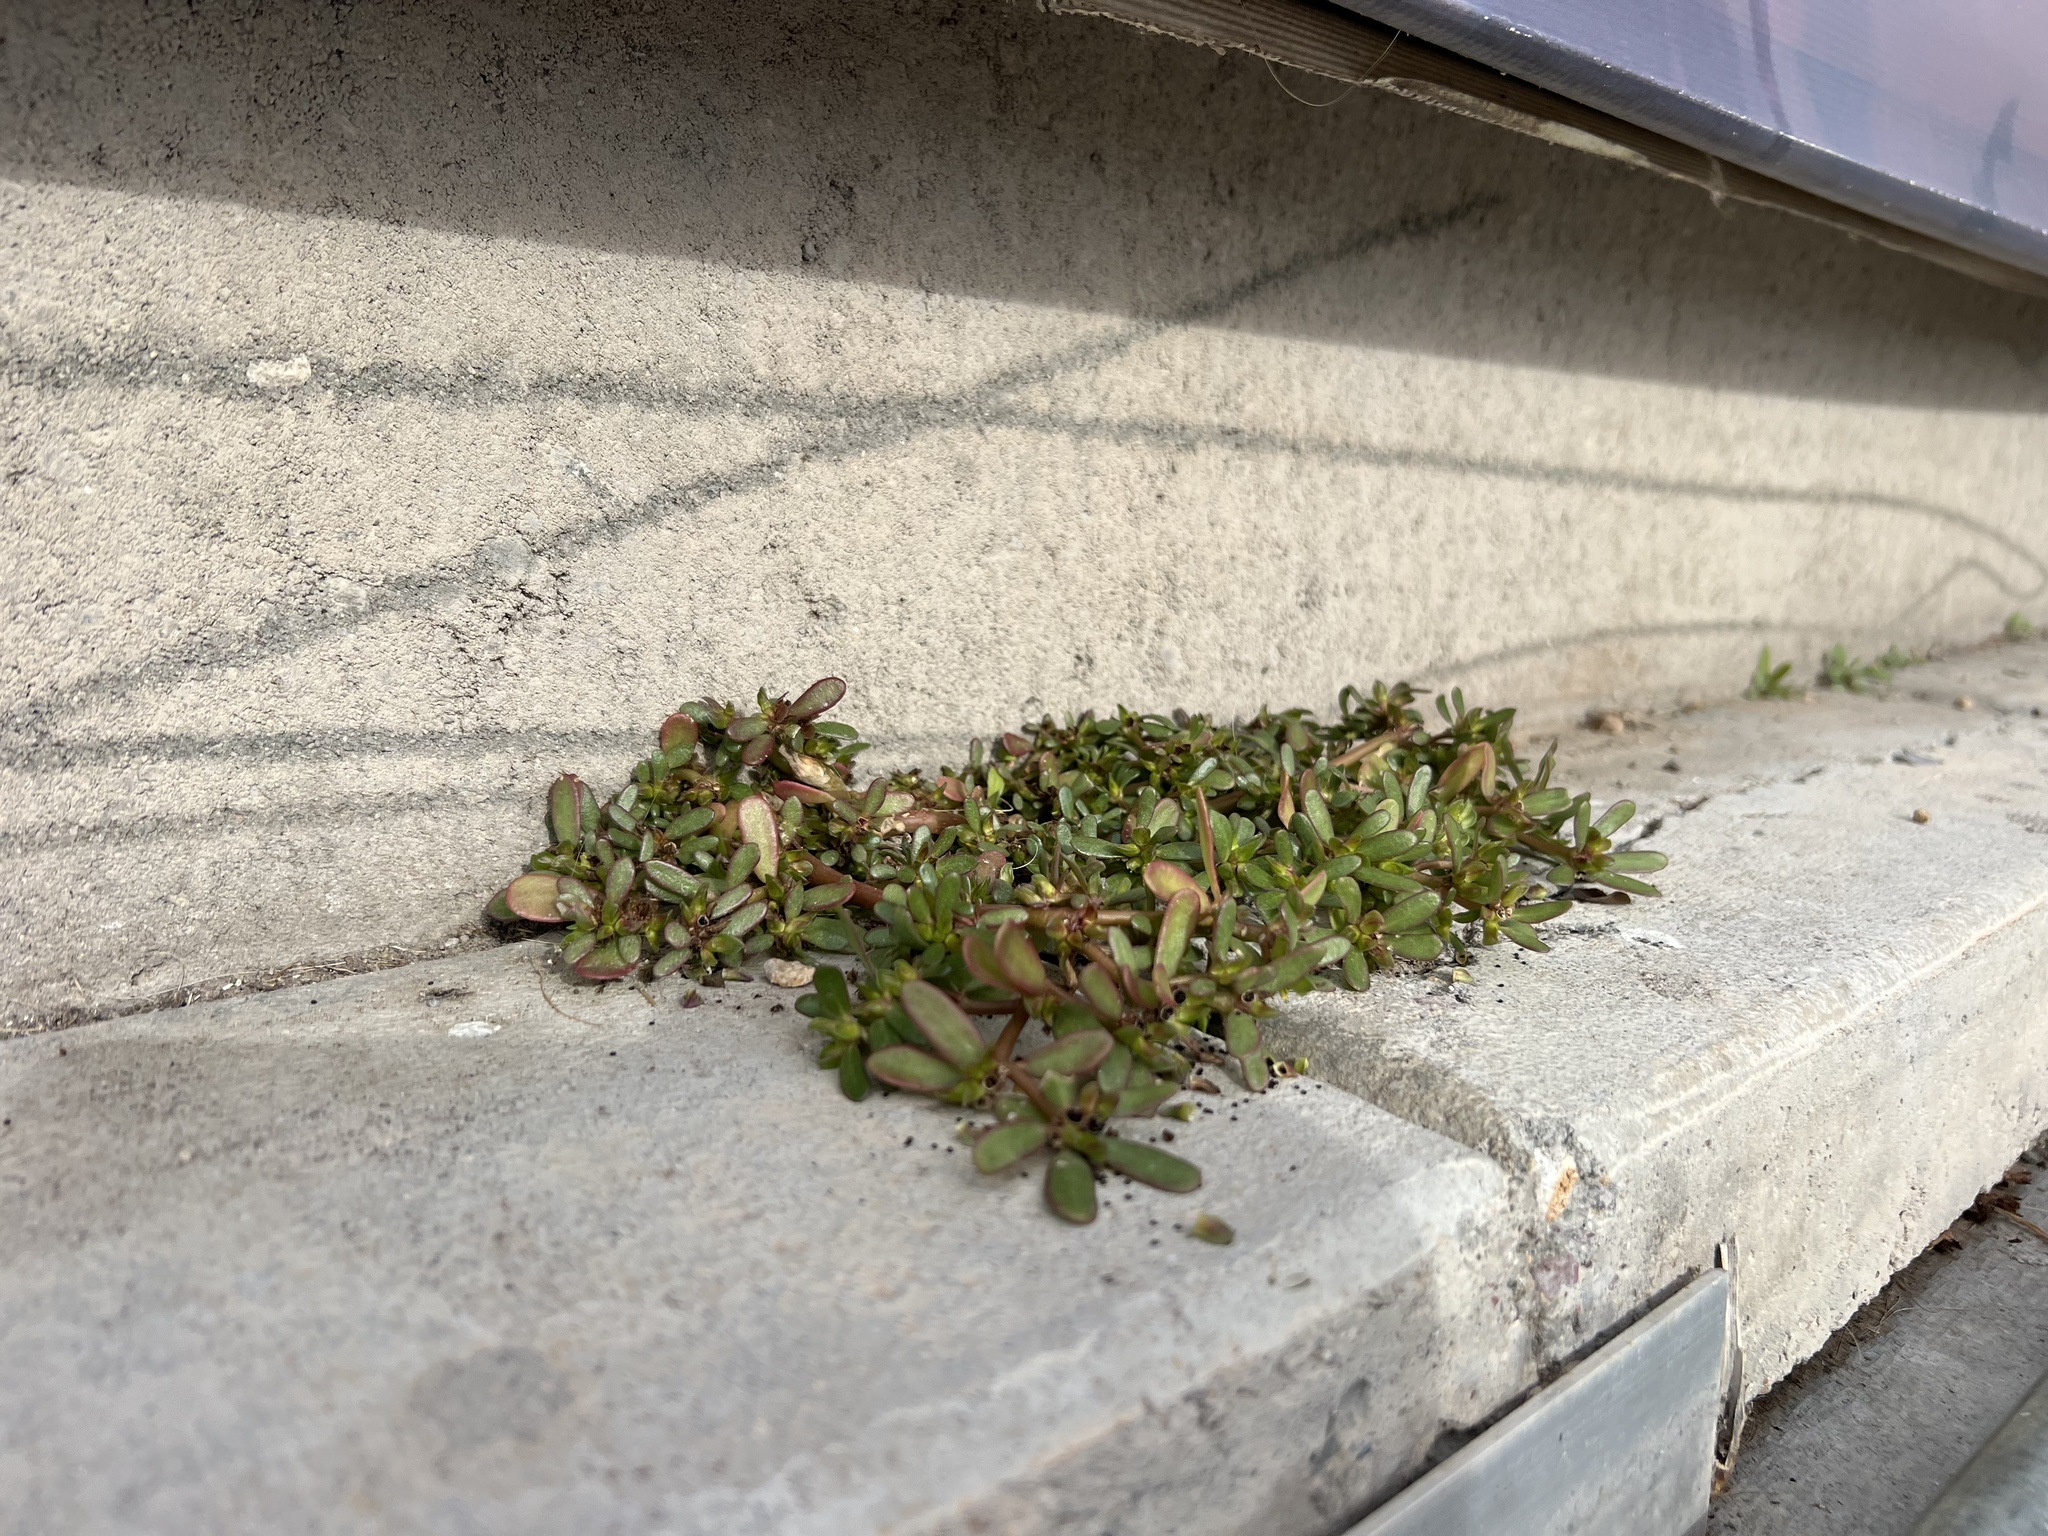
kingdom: Plantae
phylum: Tracheophyta
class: Magnoliopsida
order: Caryophyllales
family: Portulacaceae
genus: Portulaca
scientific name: Portulaca oleracea
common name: Common purslane
